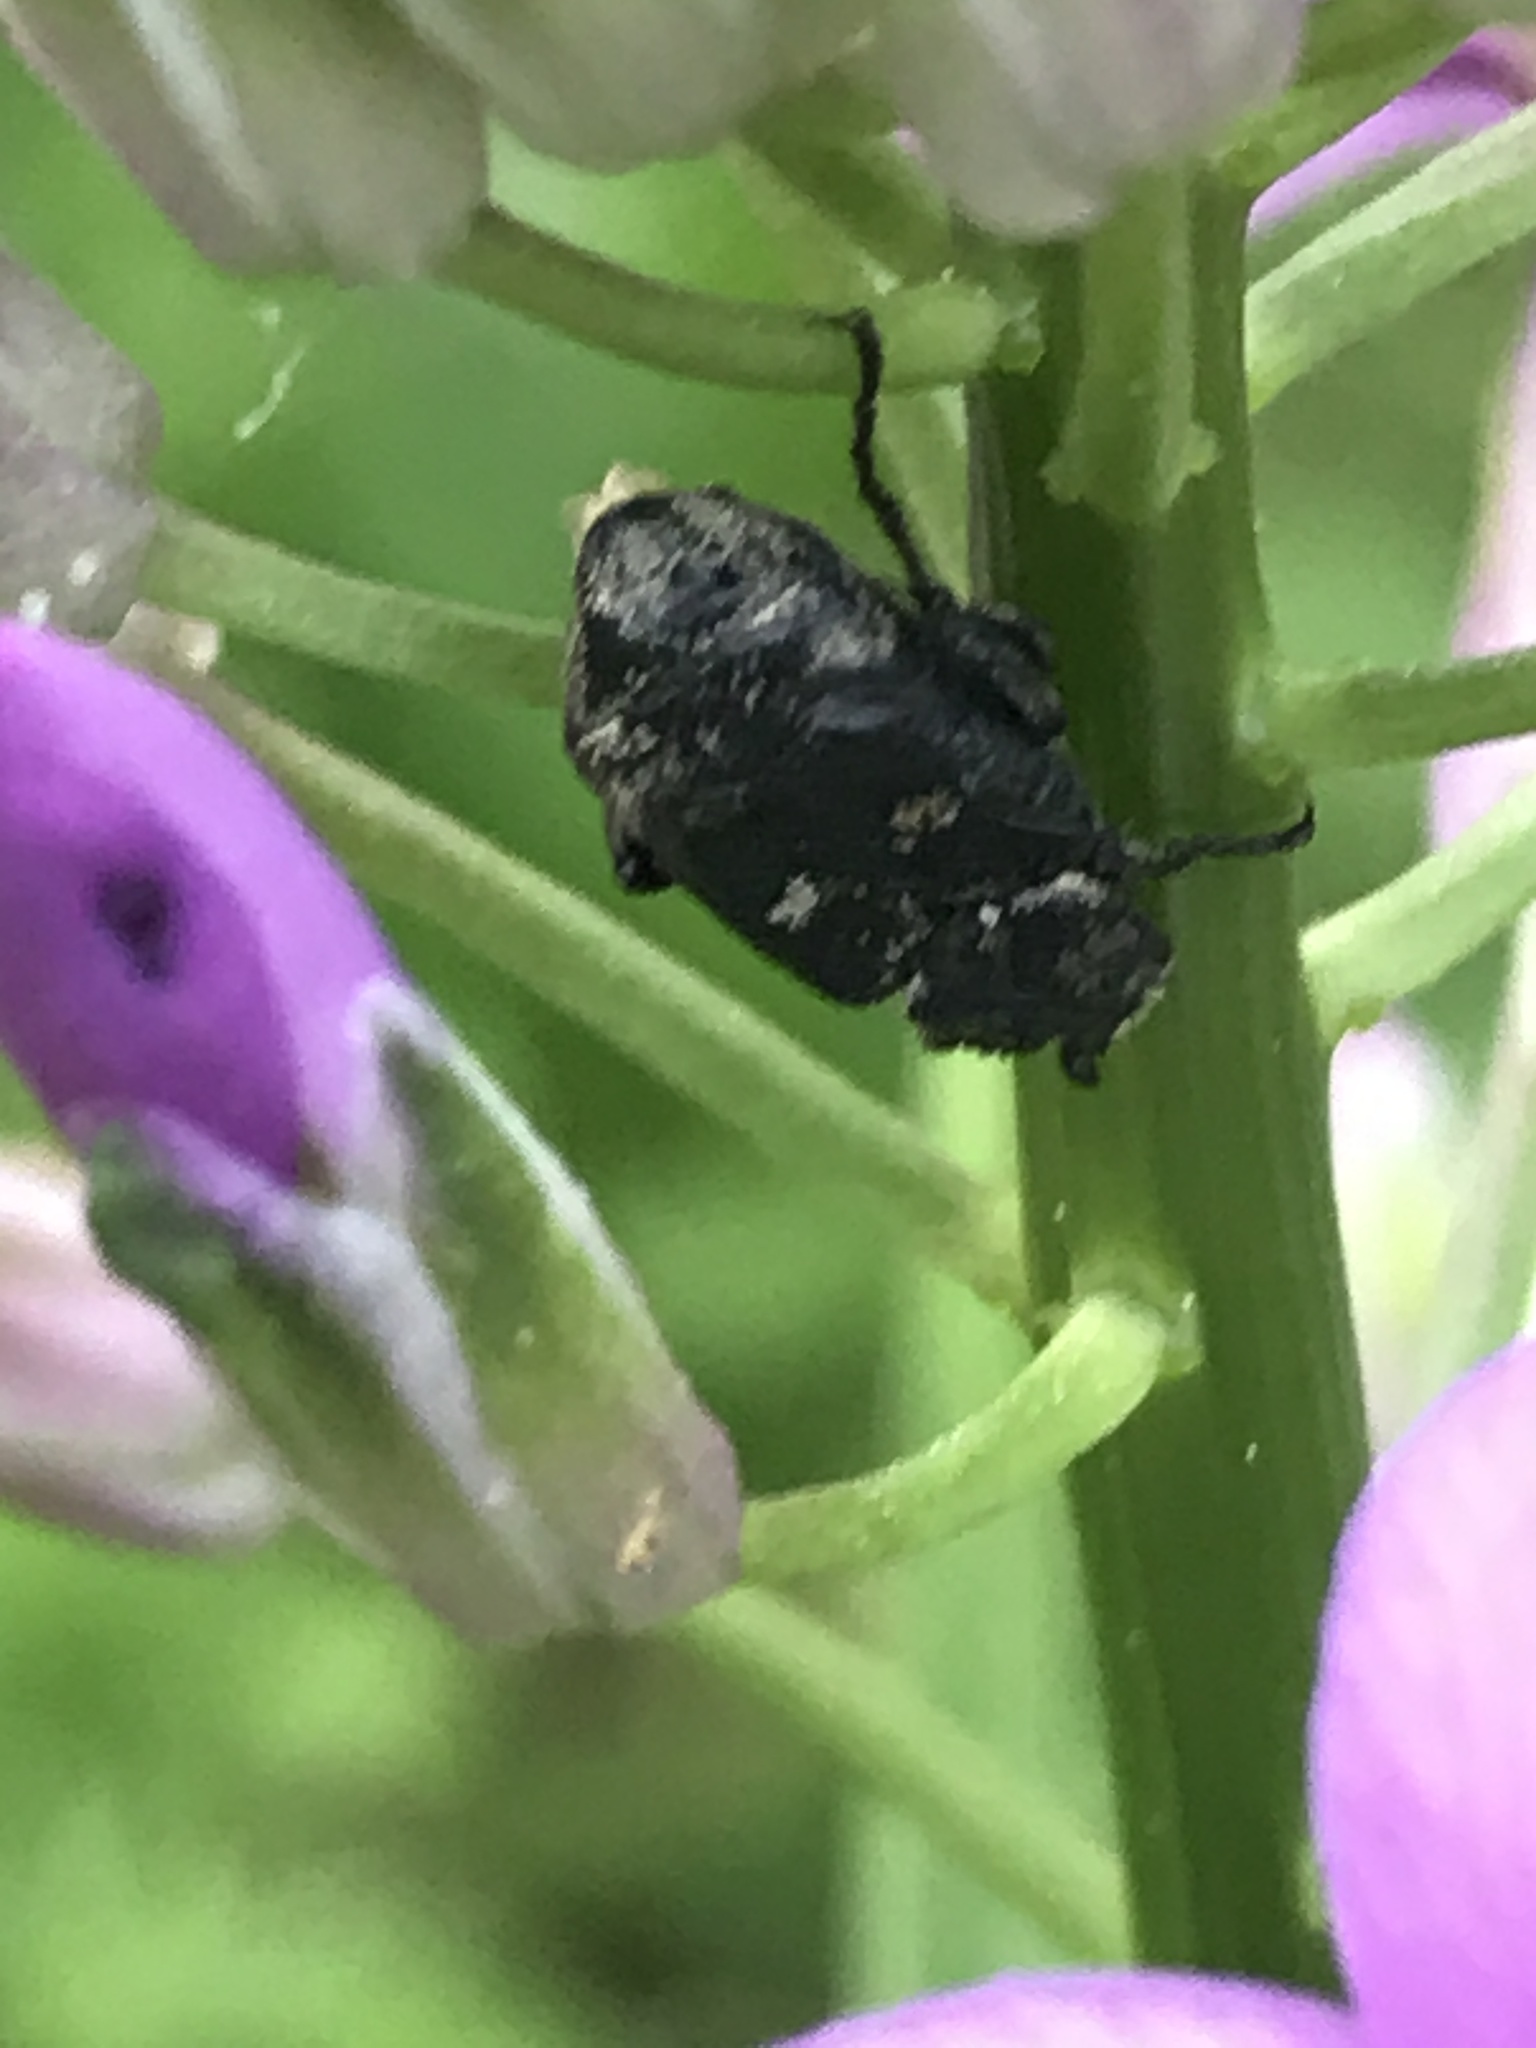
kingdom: Animalia
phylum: Arthropoda
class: Insecta
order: Coleoptera
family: Scarabaeidae
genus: Valgus
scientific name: Valgus hemipterus
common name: Bug flower chafer
